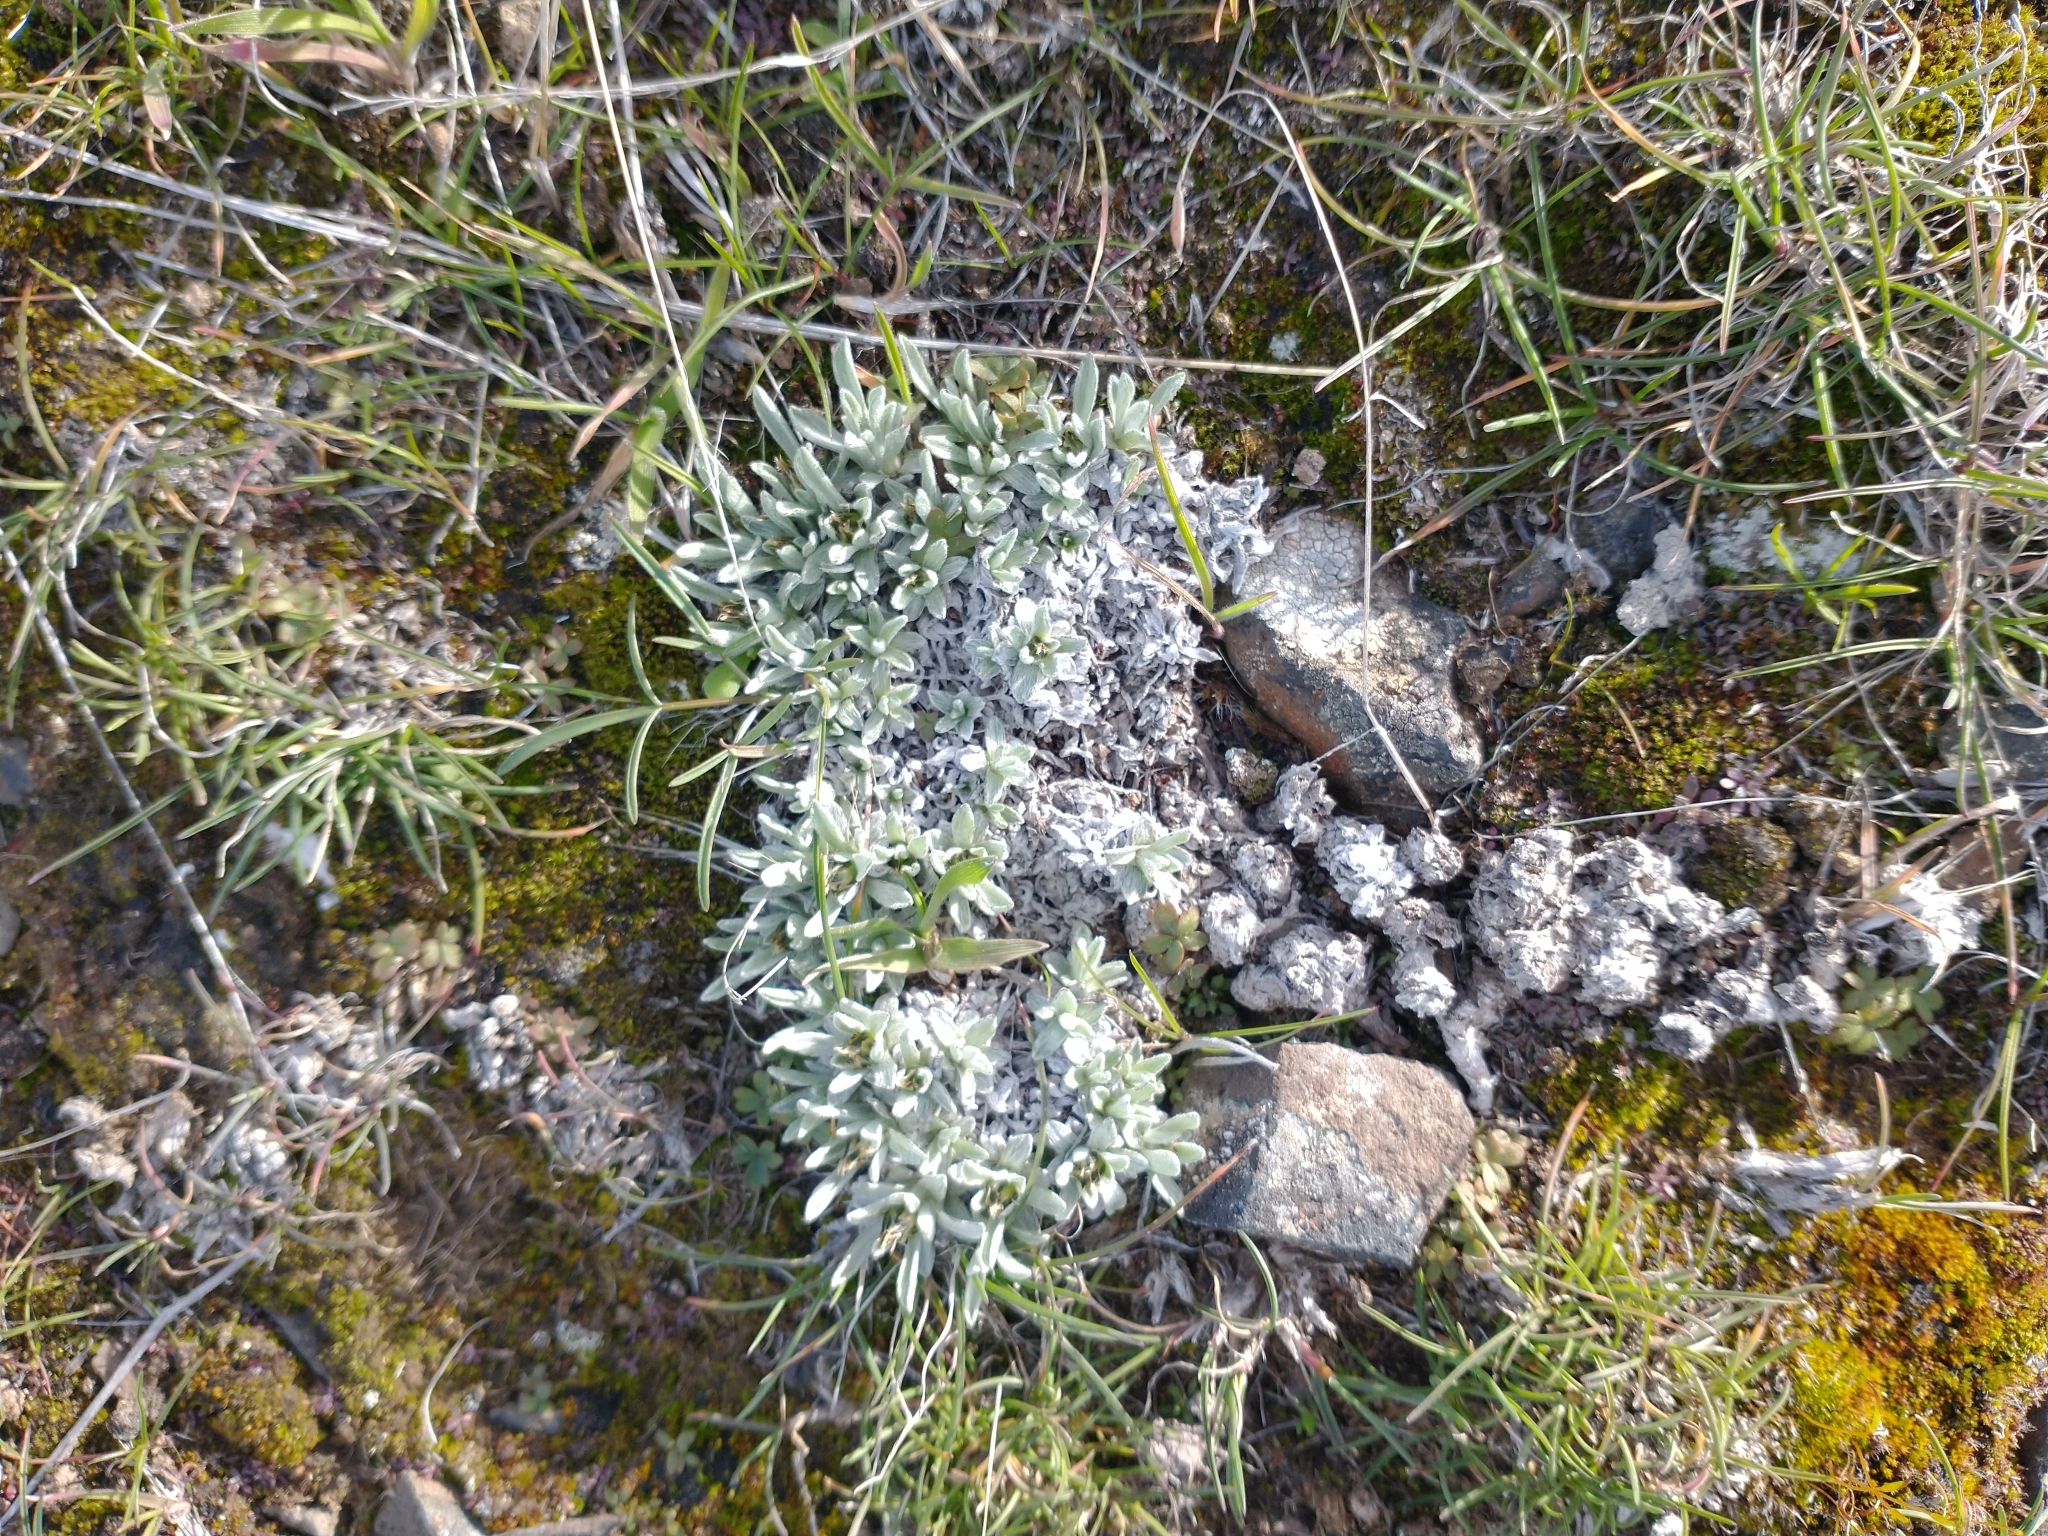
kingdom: Plantae
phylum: Tracheophyta
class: Magnoliopsida
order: Asterales
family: Asteraceae
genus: Antennaria
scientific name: Antennaria dimorpha
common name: Cushion pussytoes
